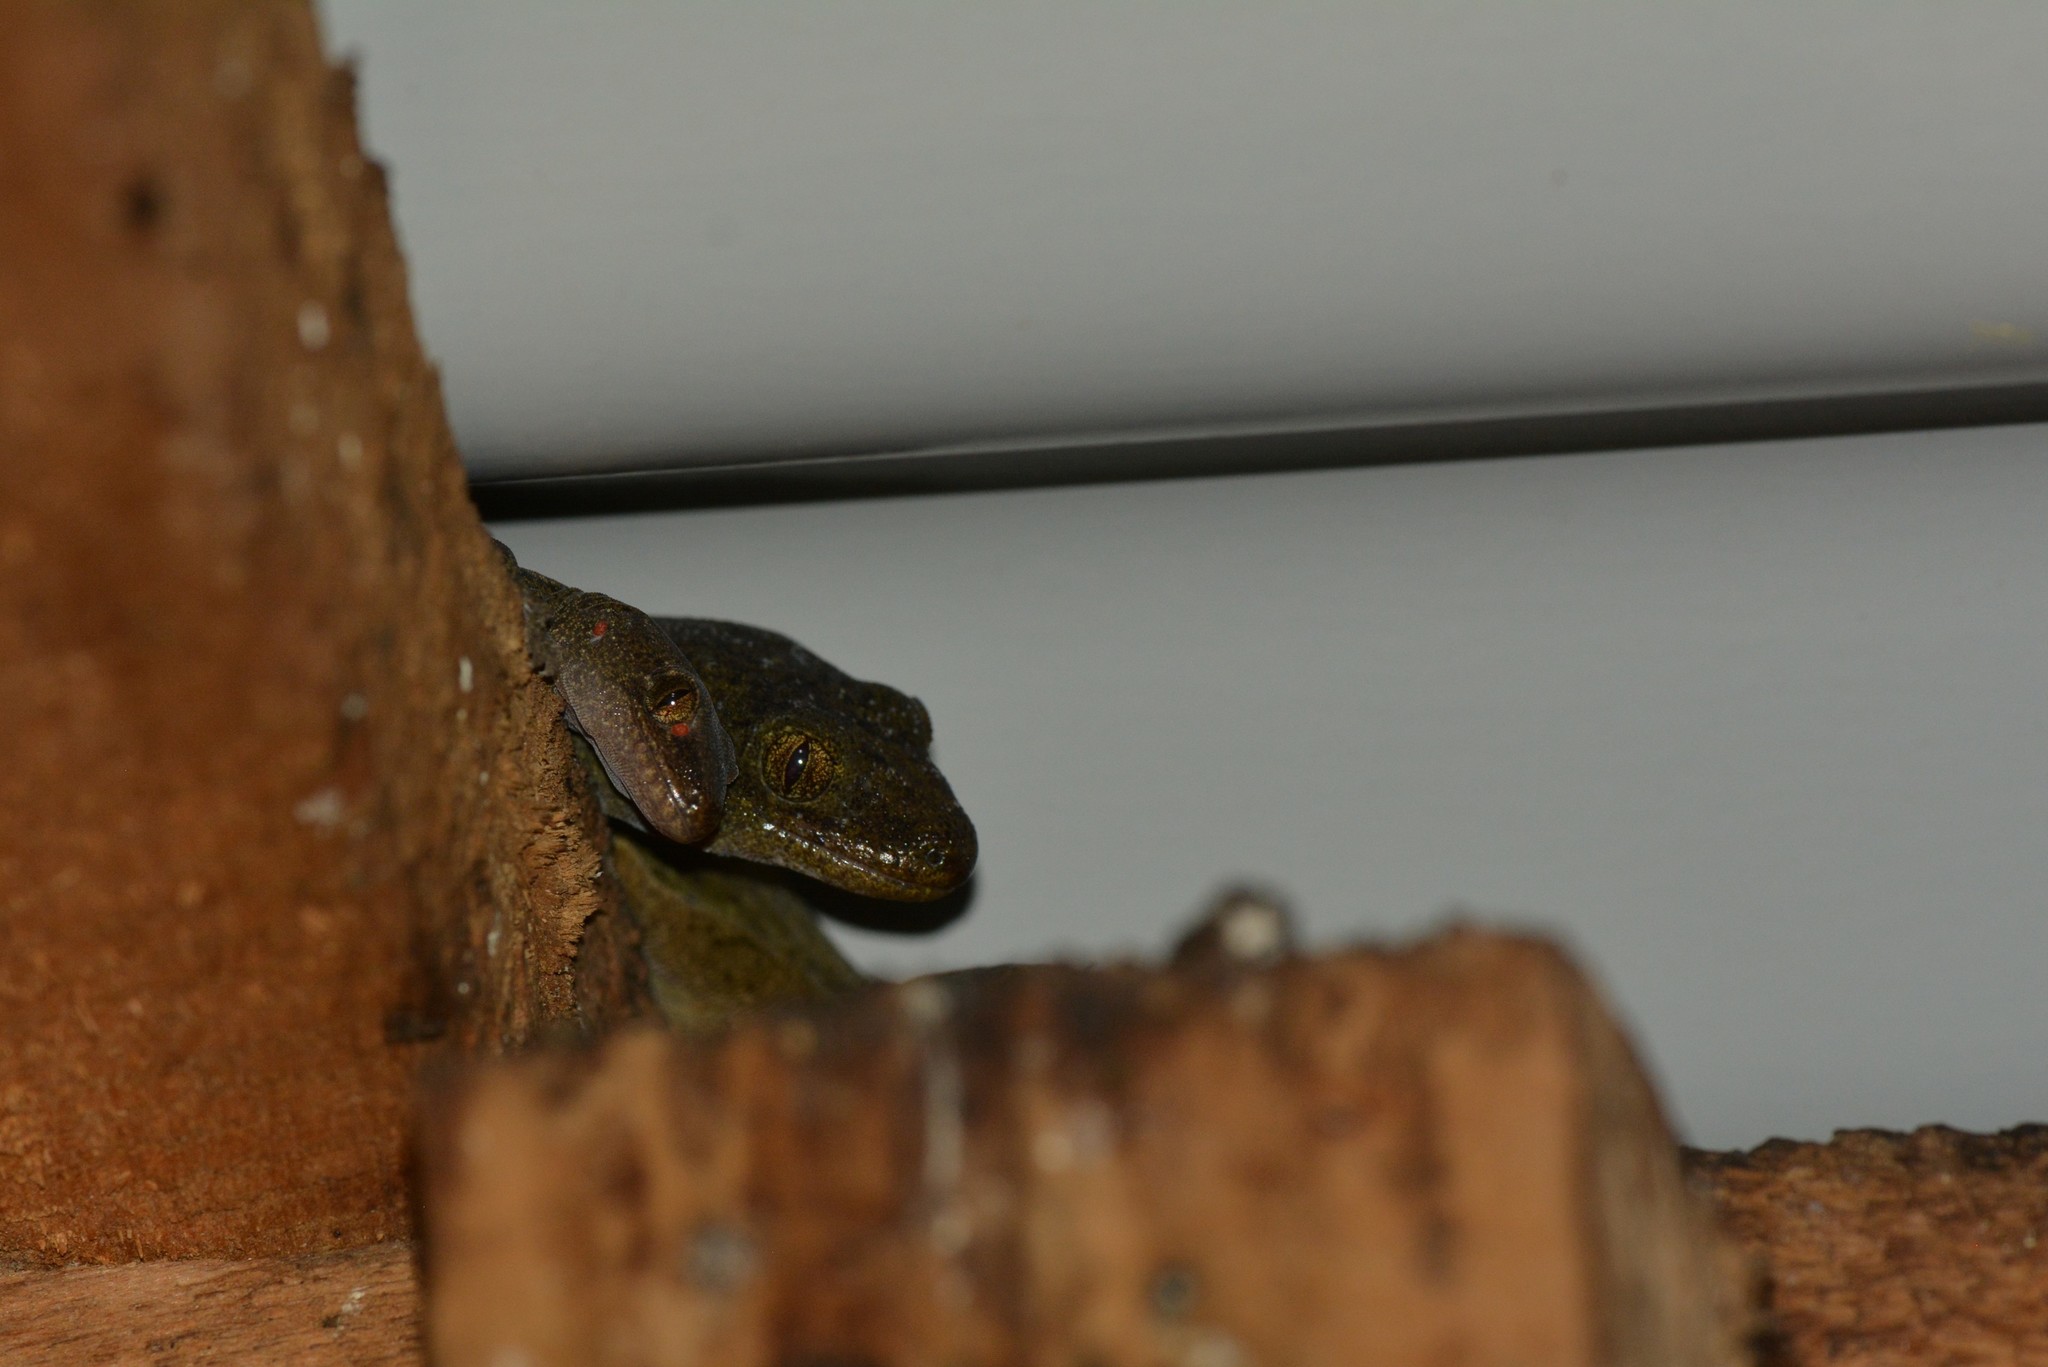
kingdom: Animalia
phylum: Chordata
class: Squamata
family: Diplodactylidae
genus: Woodworthia
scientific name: Woodworthia maculata
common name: Raukawa gecko
